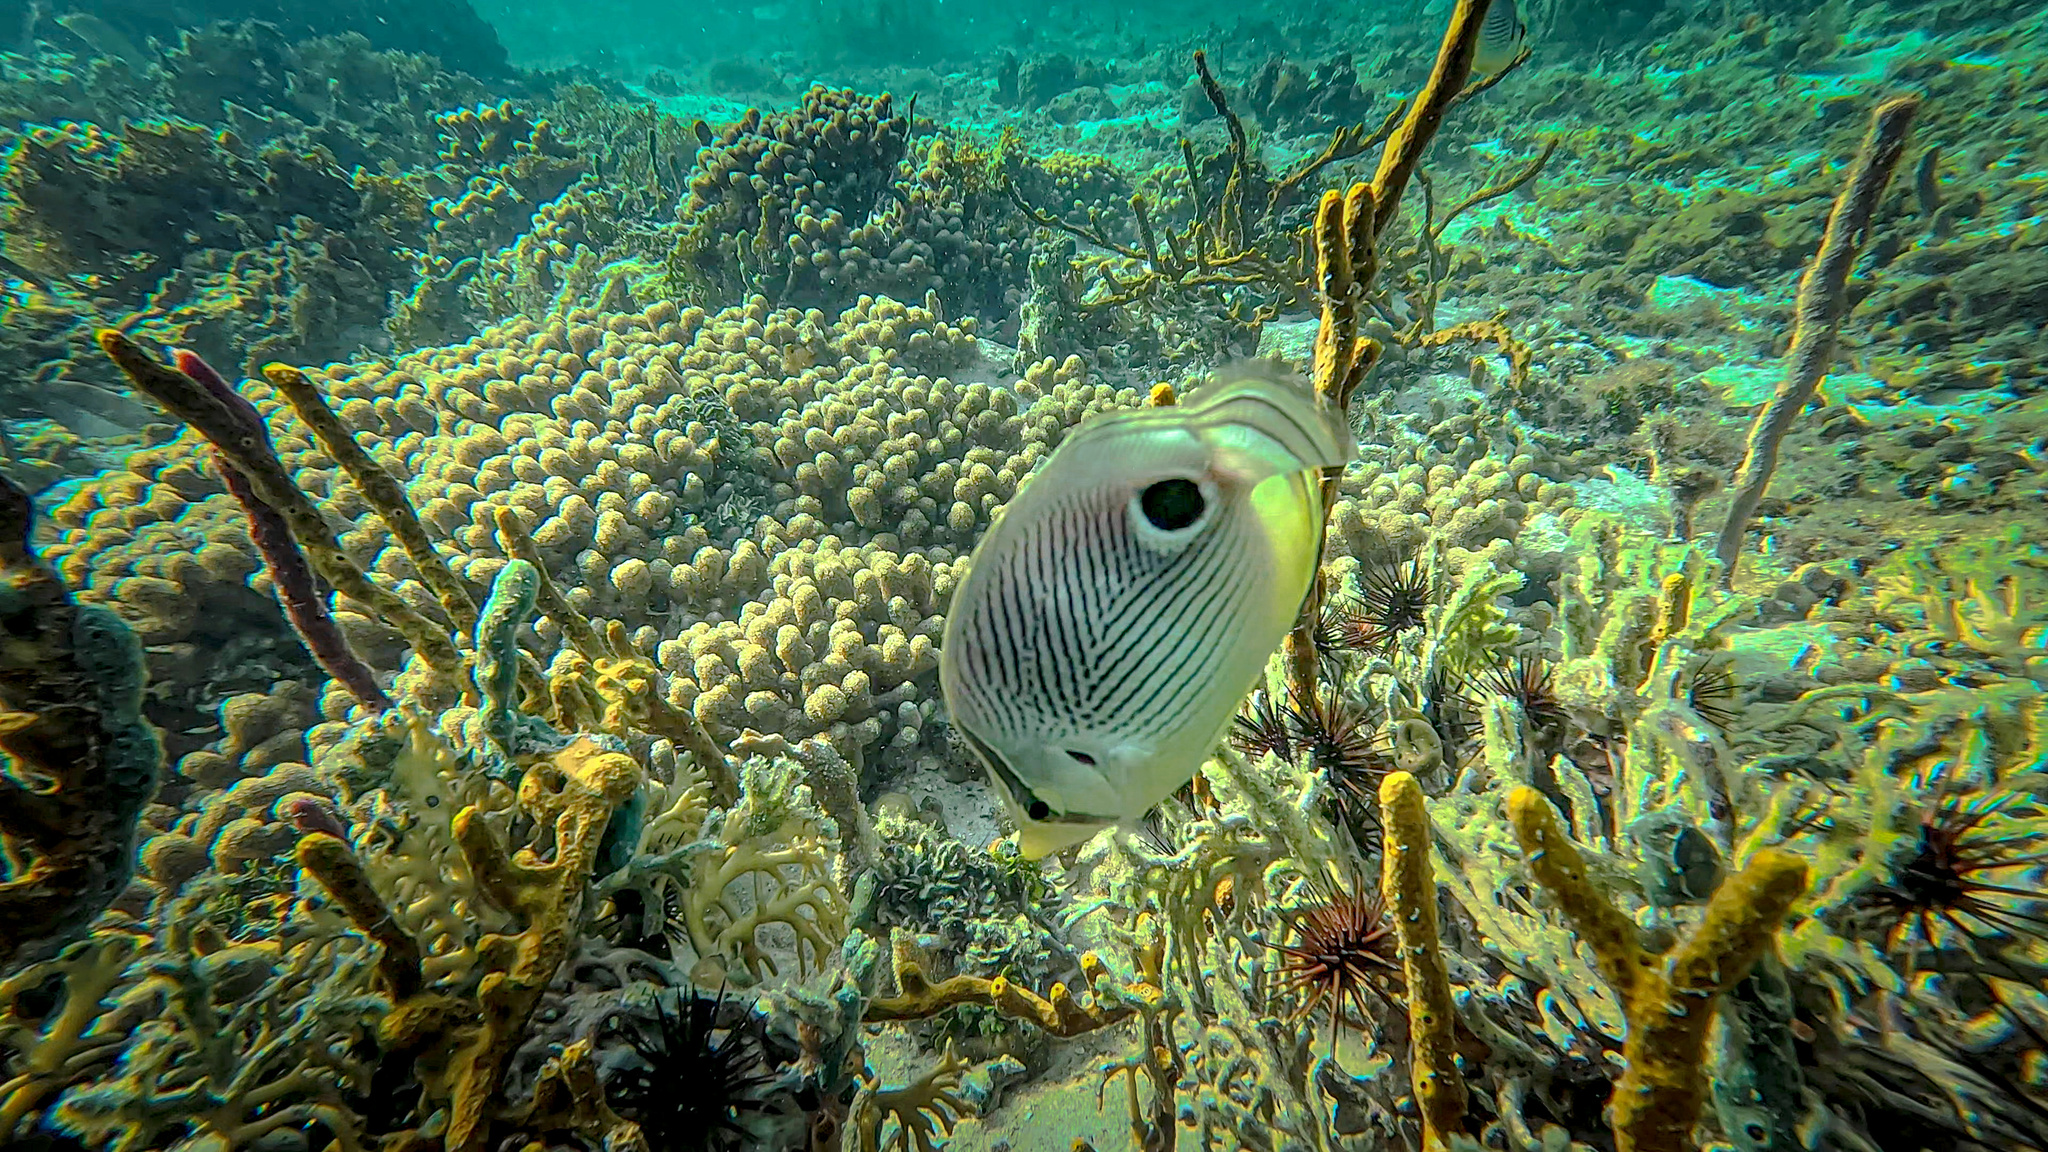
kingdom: Animalia
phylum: Chordata
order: Perciformes
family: Chaetodontidae
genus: Chaetodon
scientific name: Chaetodon capistratus
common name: Kete
